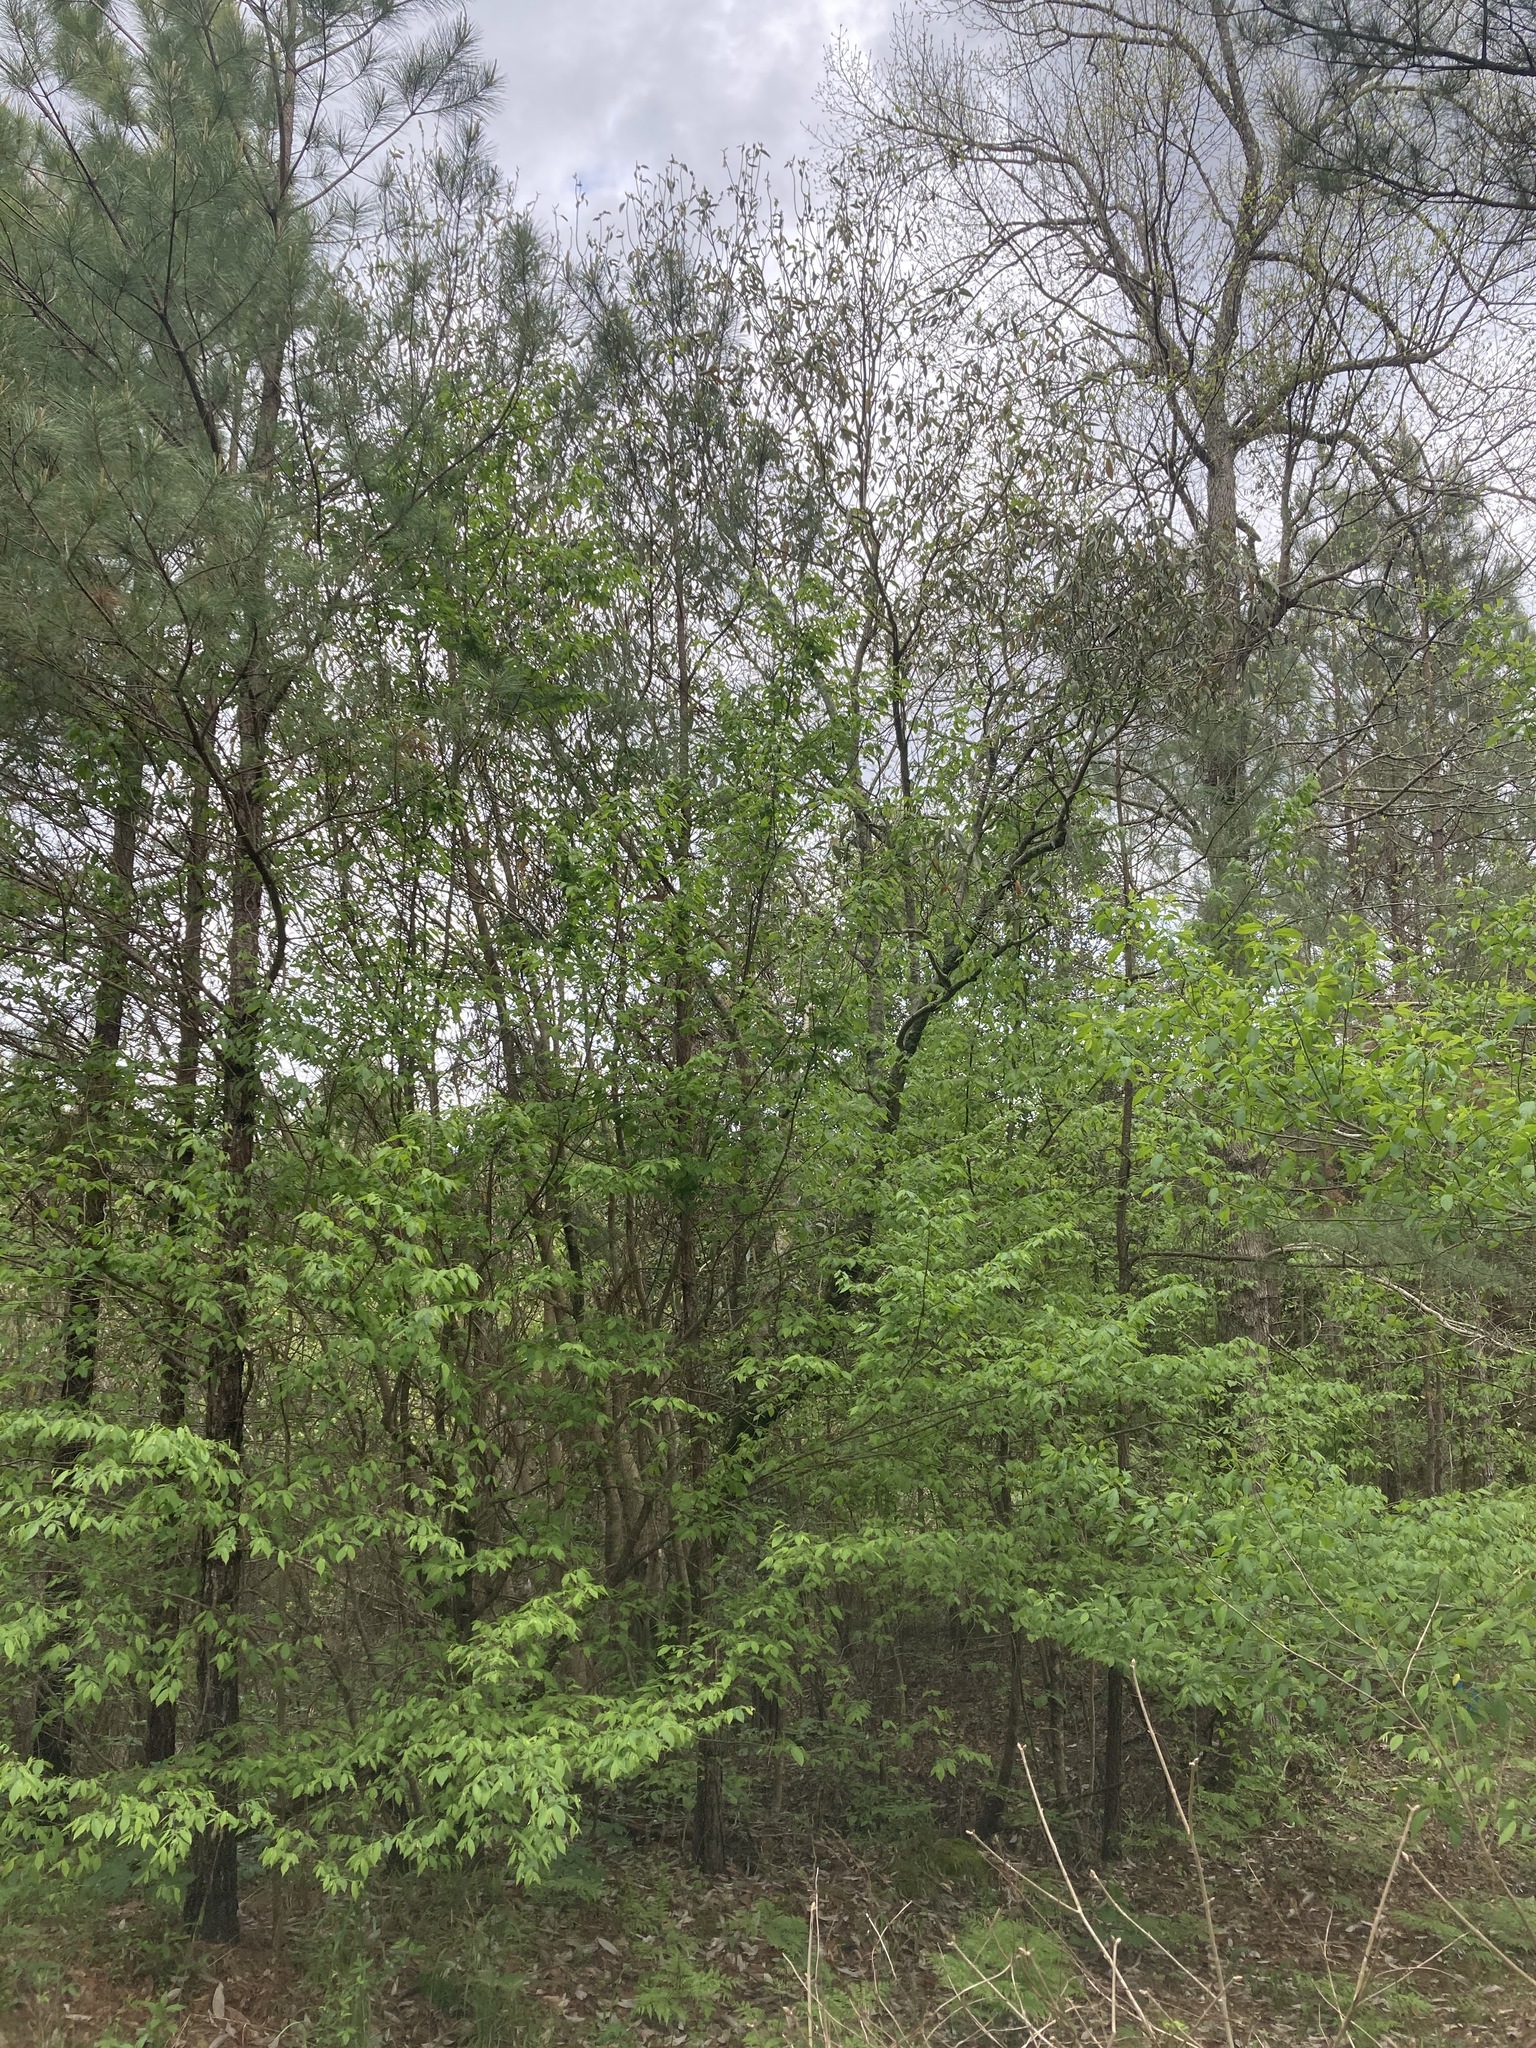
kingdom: Plantae
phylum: Tracheophyta
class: Magnoliopsida
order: Magnoliales
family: Magnoliaceae
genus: Magnolia
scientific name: Magnolia virginiana
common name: Swamp bay
